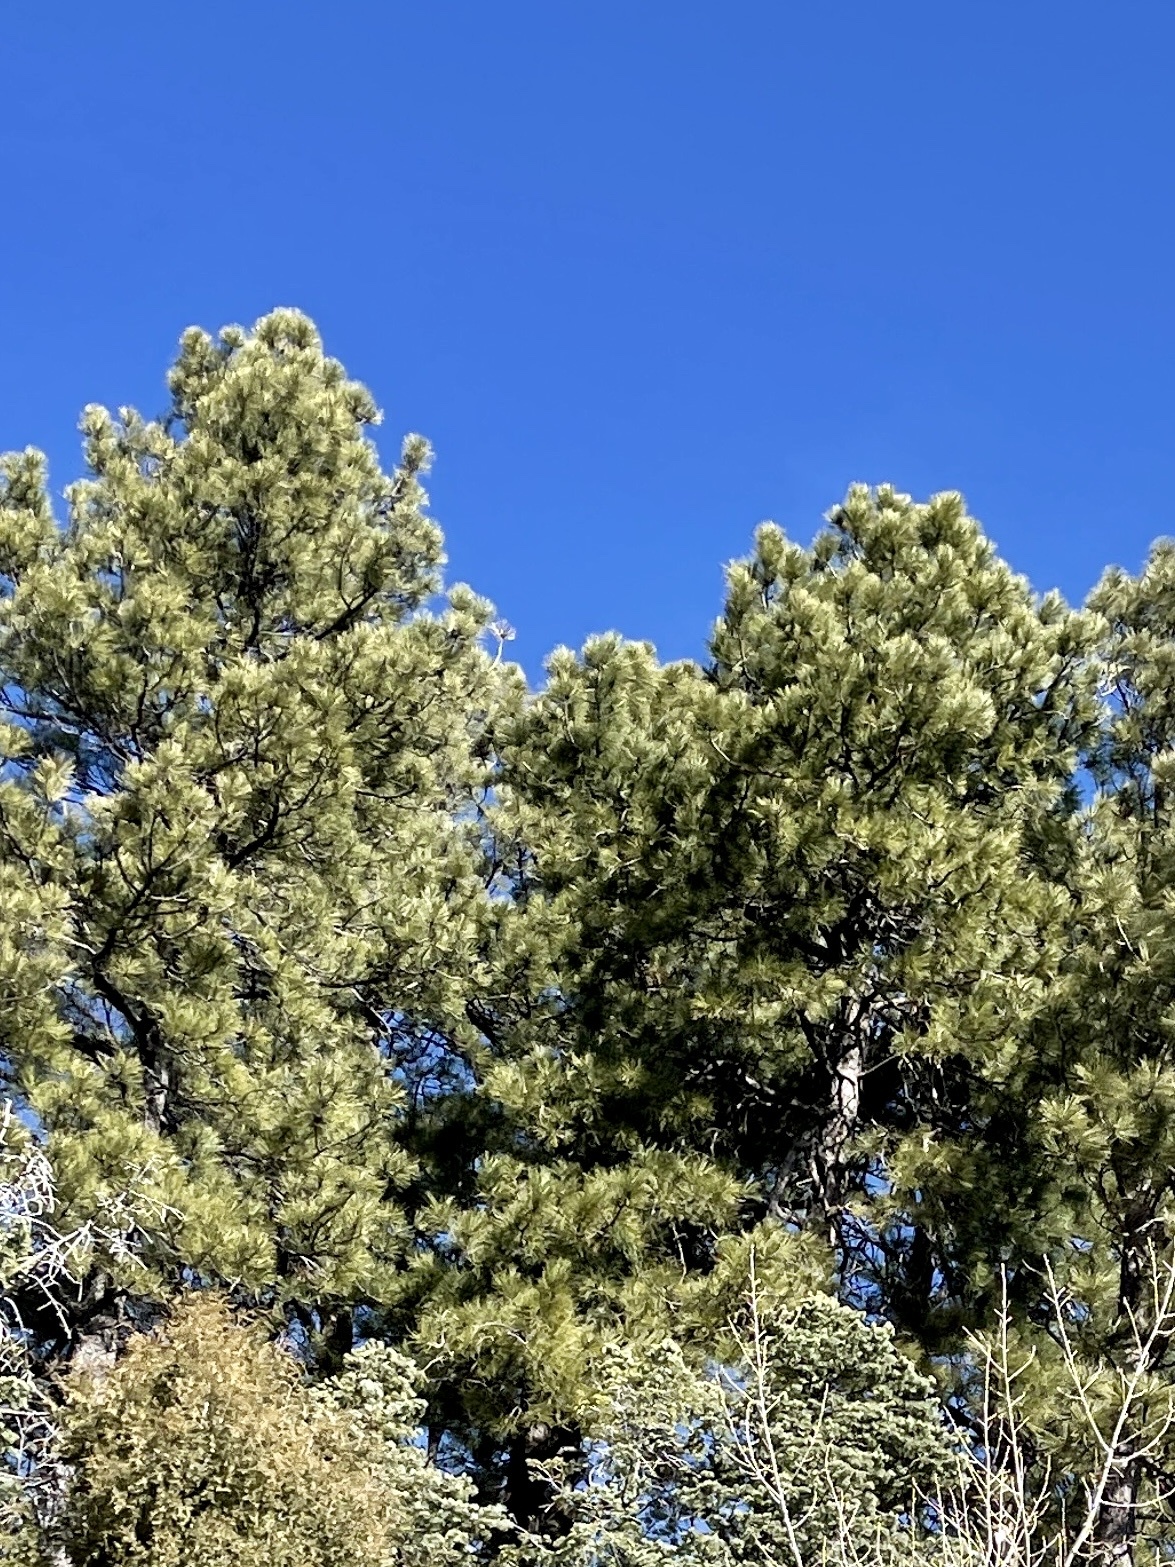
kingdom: Plantae
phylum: Tracheophyta
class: Pinopsida
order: Pinales
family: Pinaceae
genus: Pinus
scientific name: Pinus ponderosa
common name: Western yellow-pine
